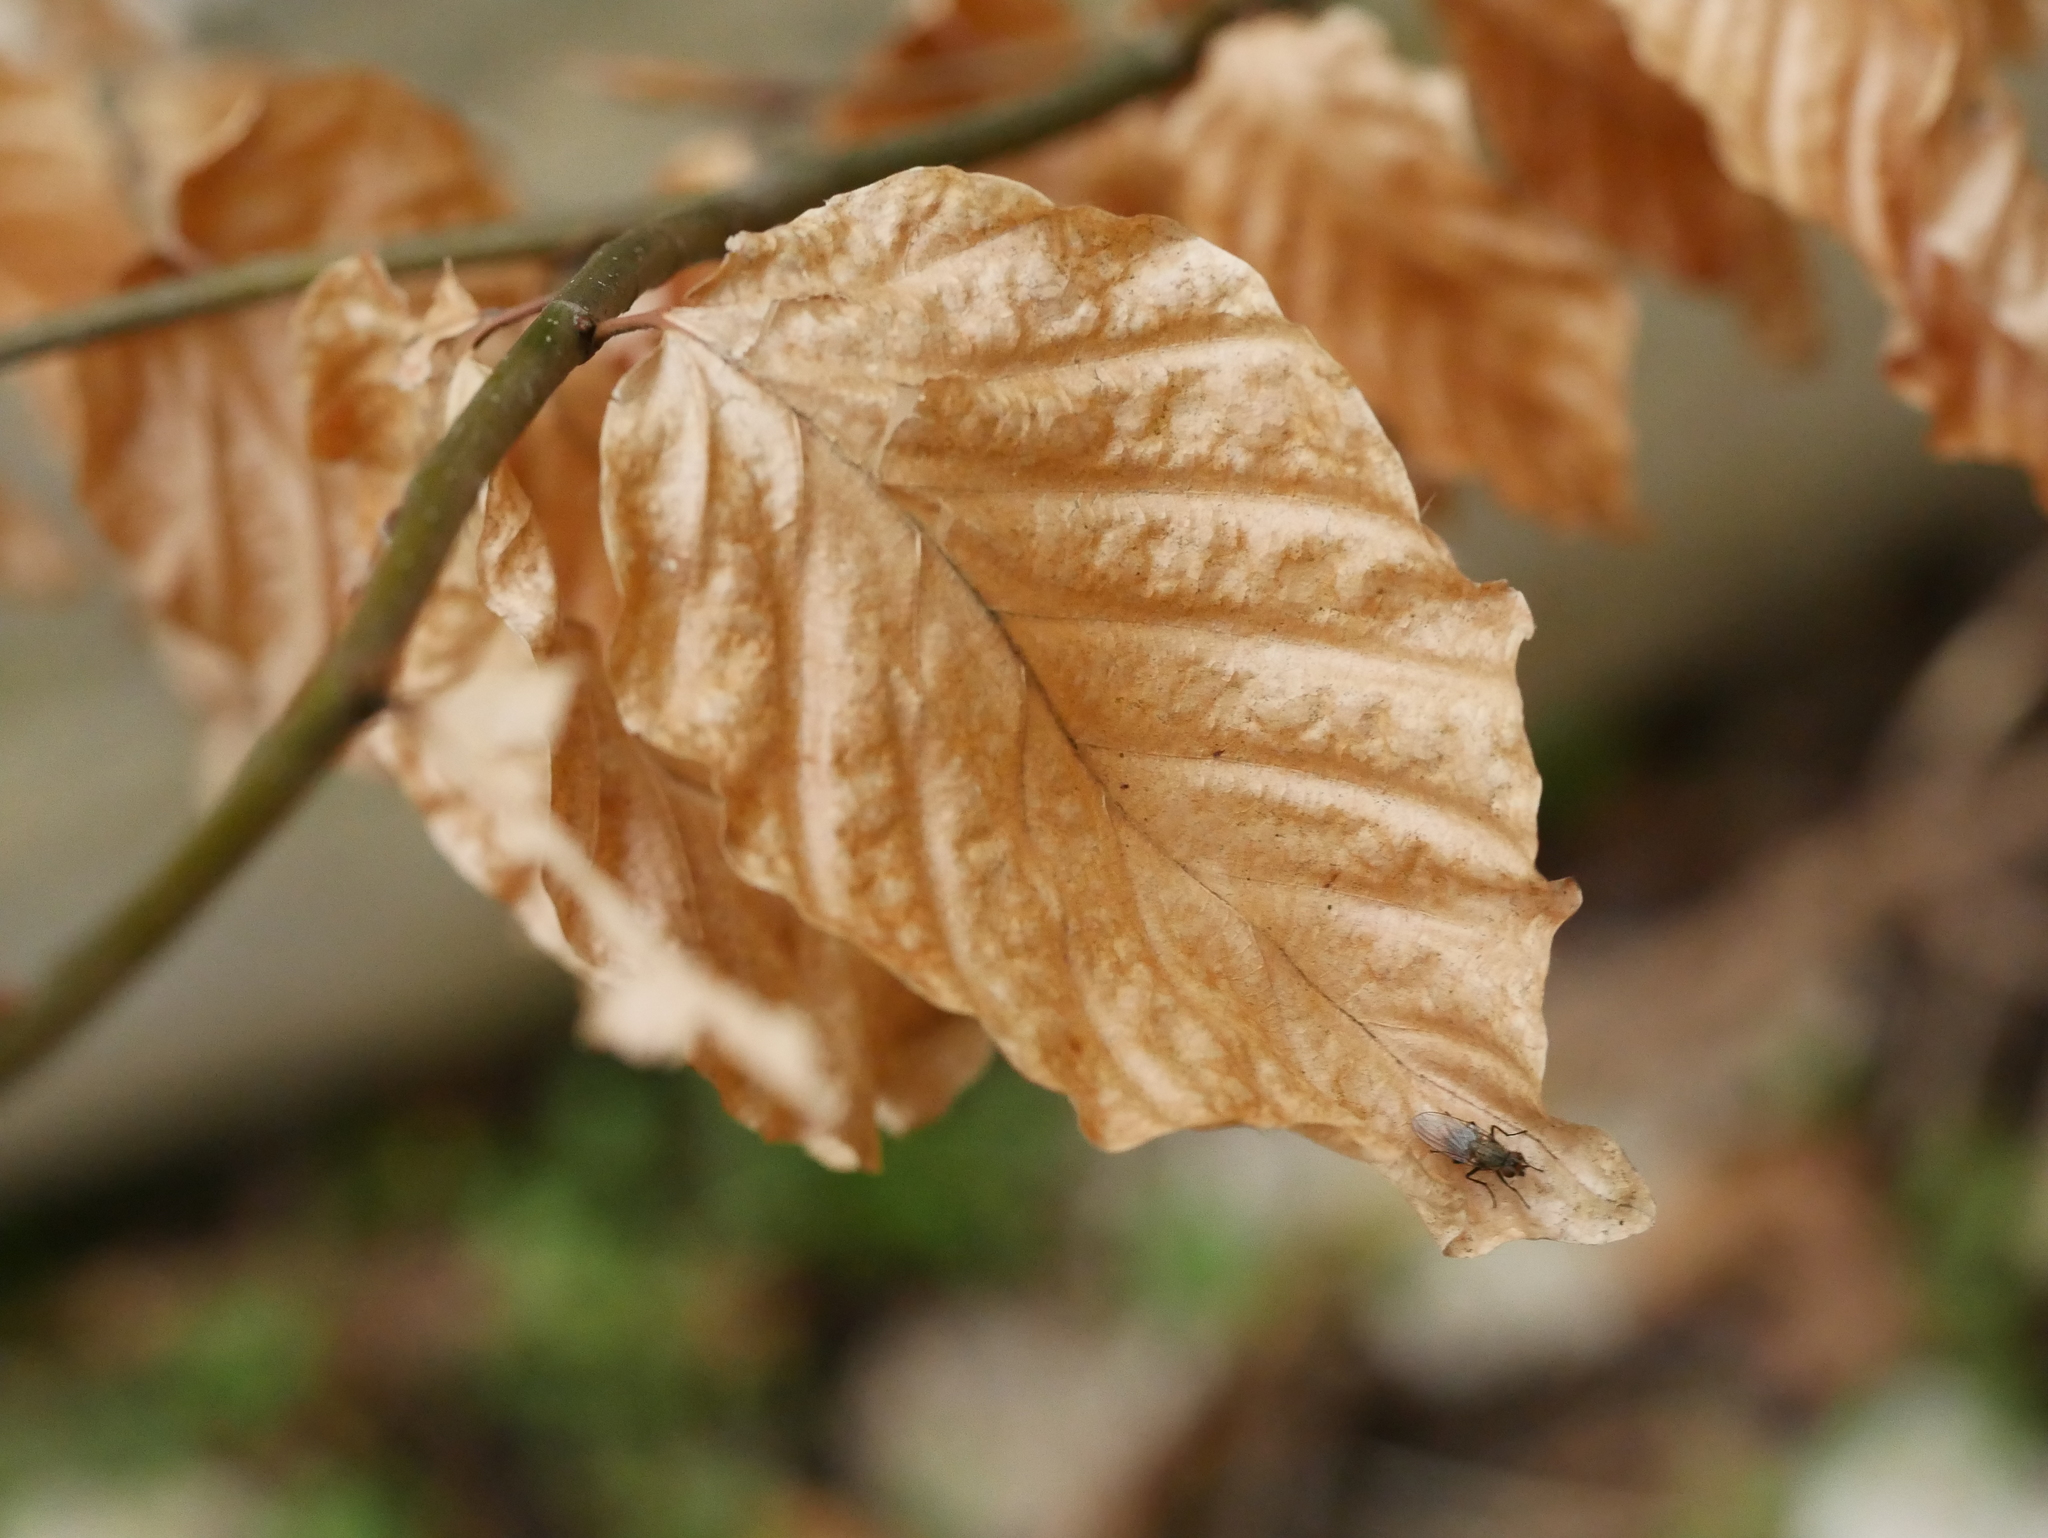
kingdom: Plantae
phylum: Tracheophyta
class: Magnoliopsida
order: Fagales
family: Fagaceae
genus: Fagus
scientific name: Fagus sylvatica
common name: Beech
